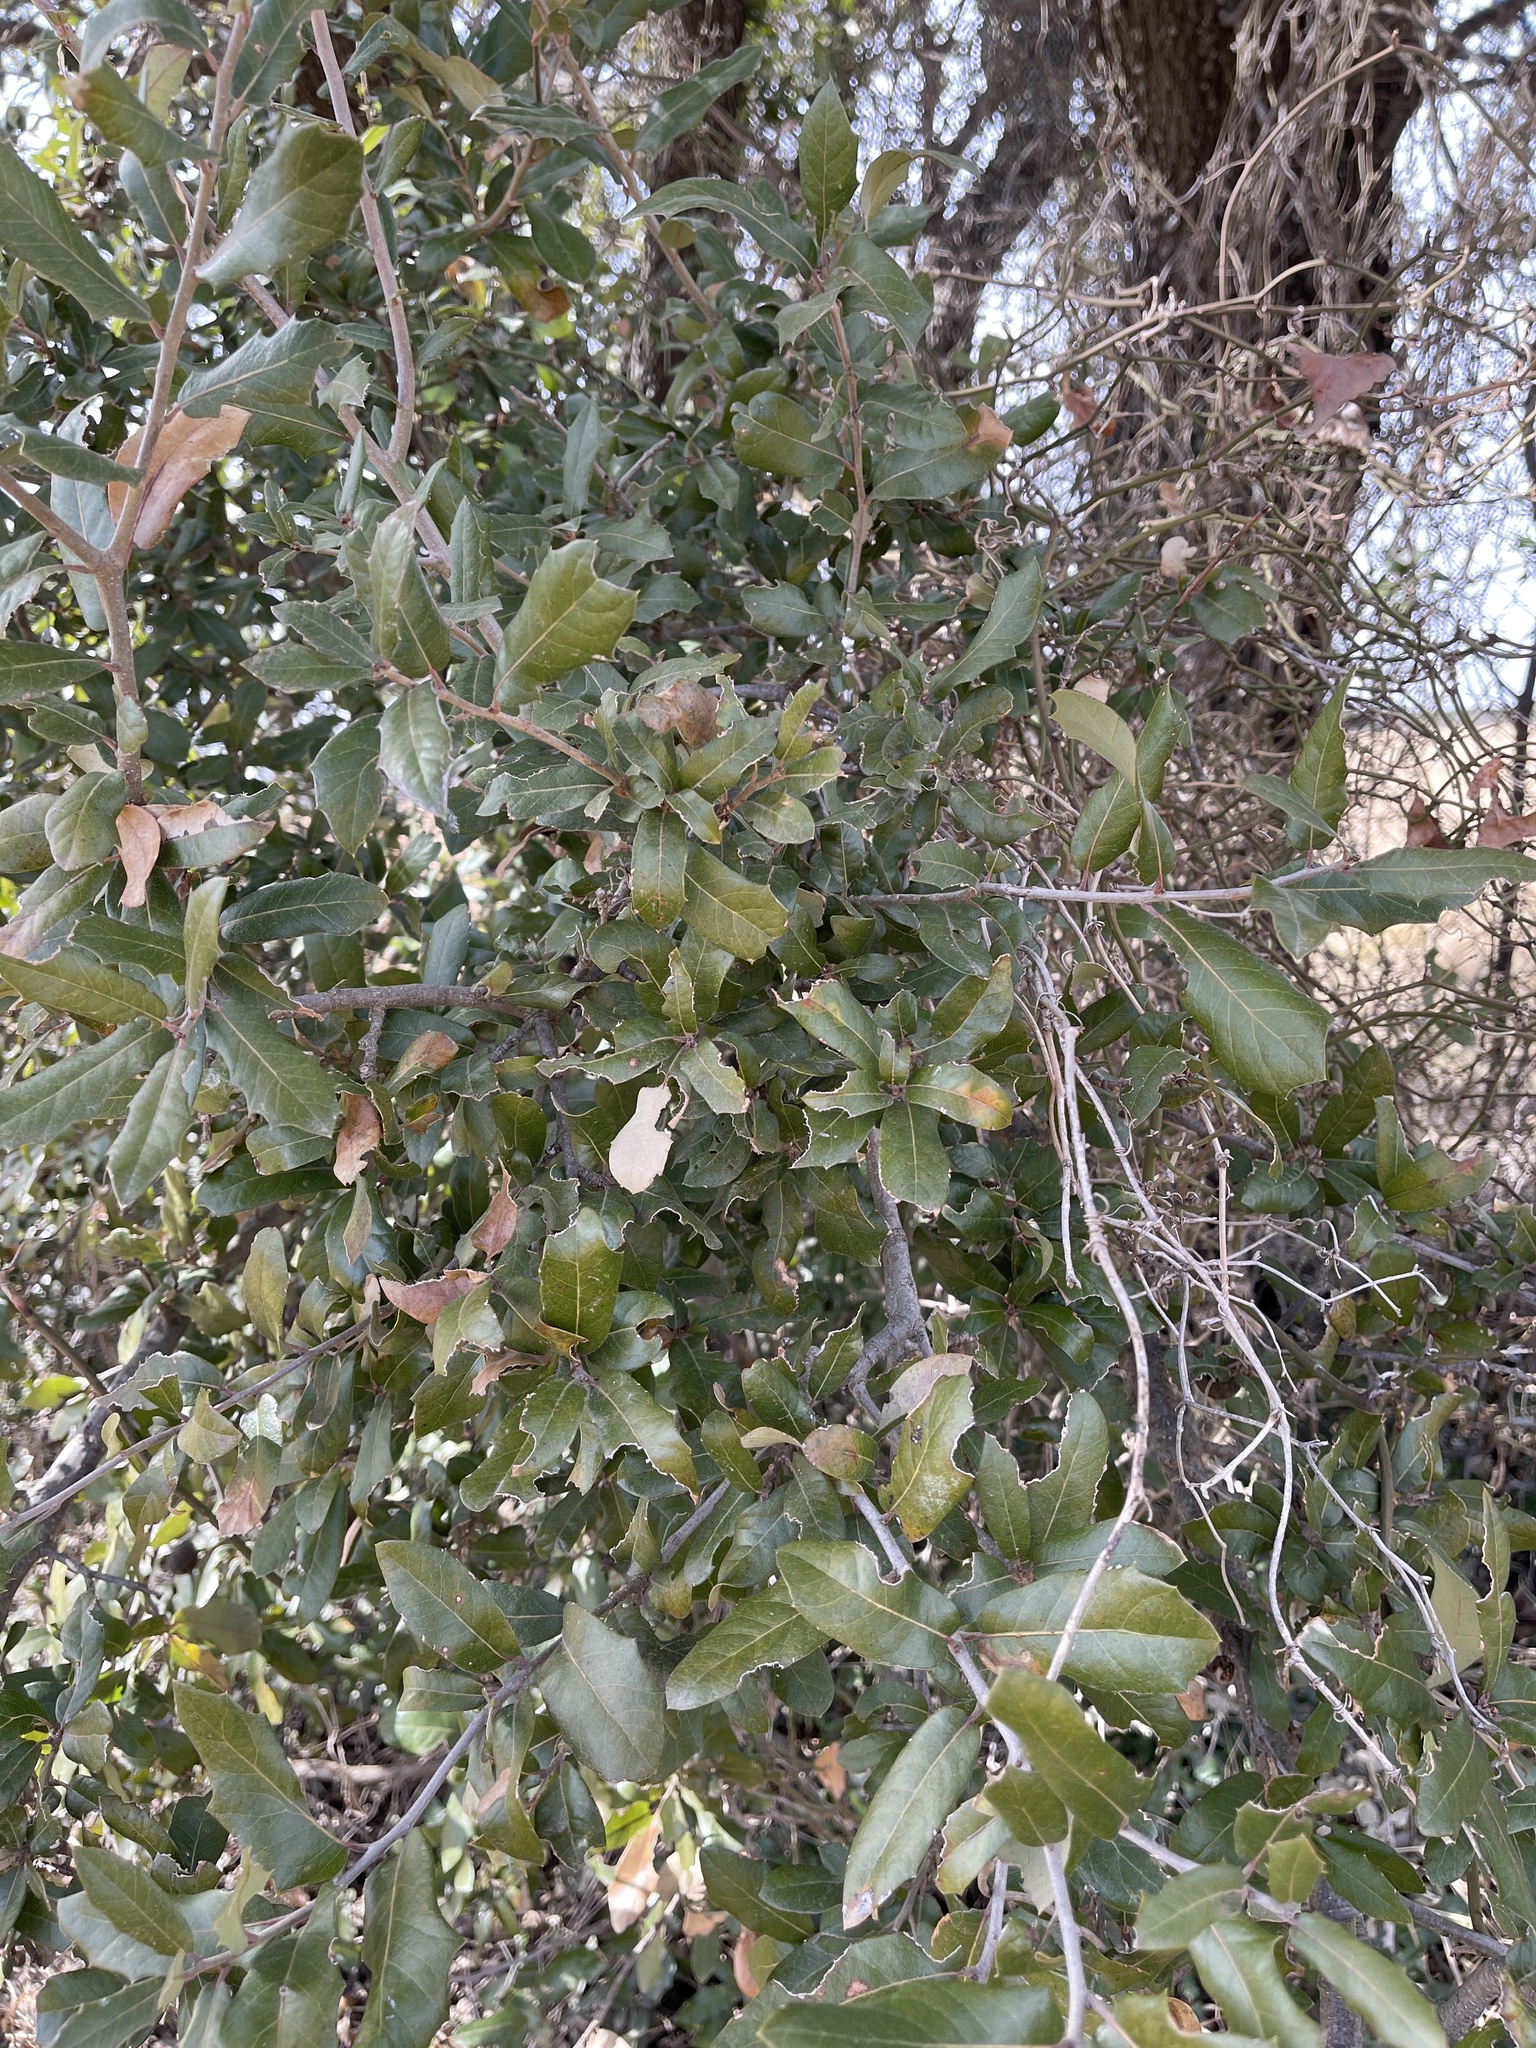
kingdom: Plantae
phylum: Tracheophyta
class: Magnoliopsida
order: Fagales
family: Fagaceae
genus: Quercus
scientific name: Quercus fusiformis
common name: Texas live oak
